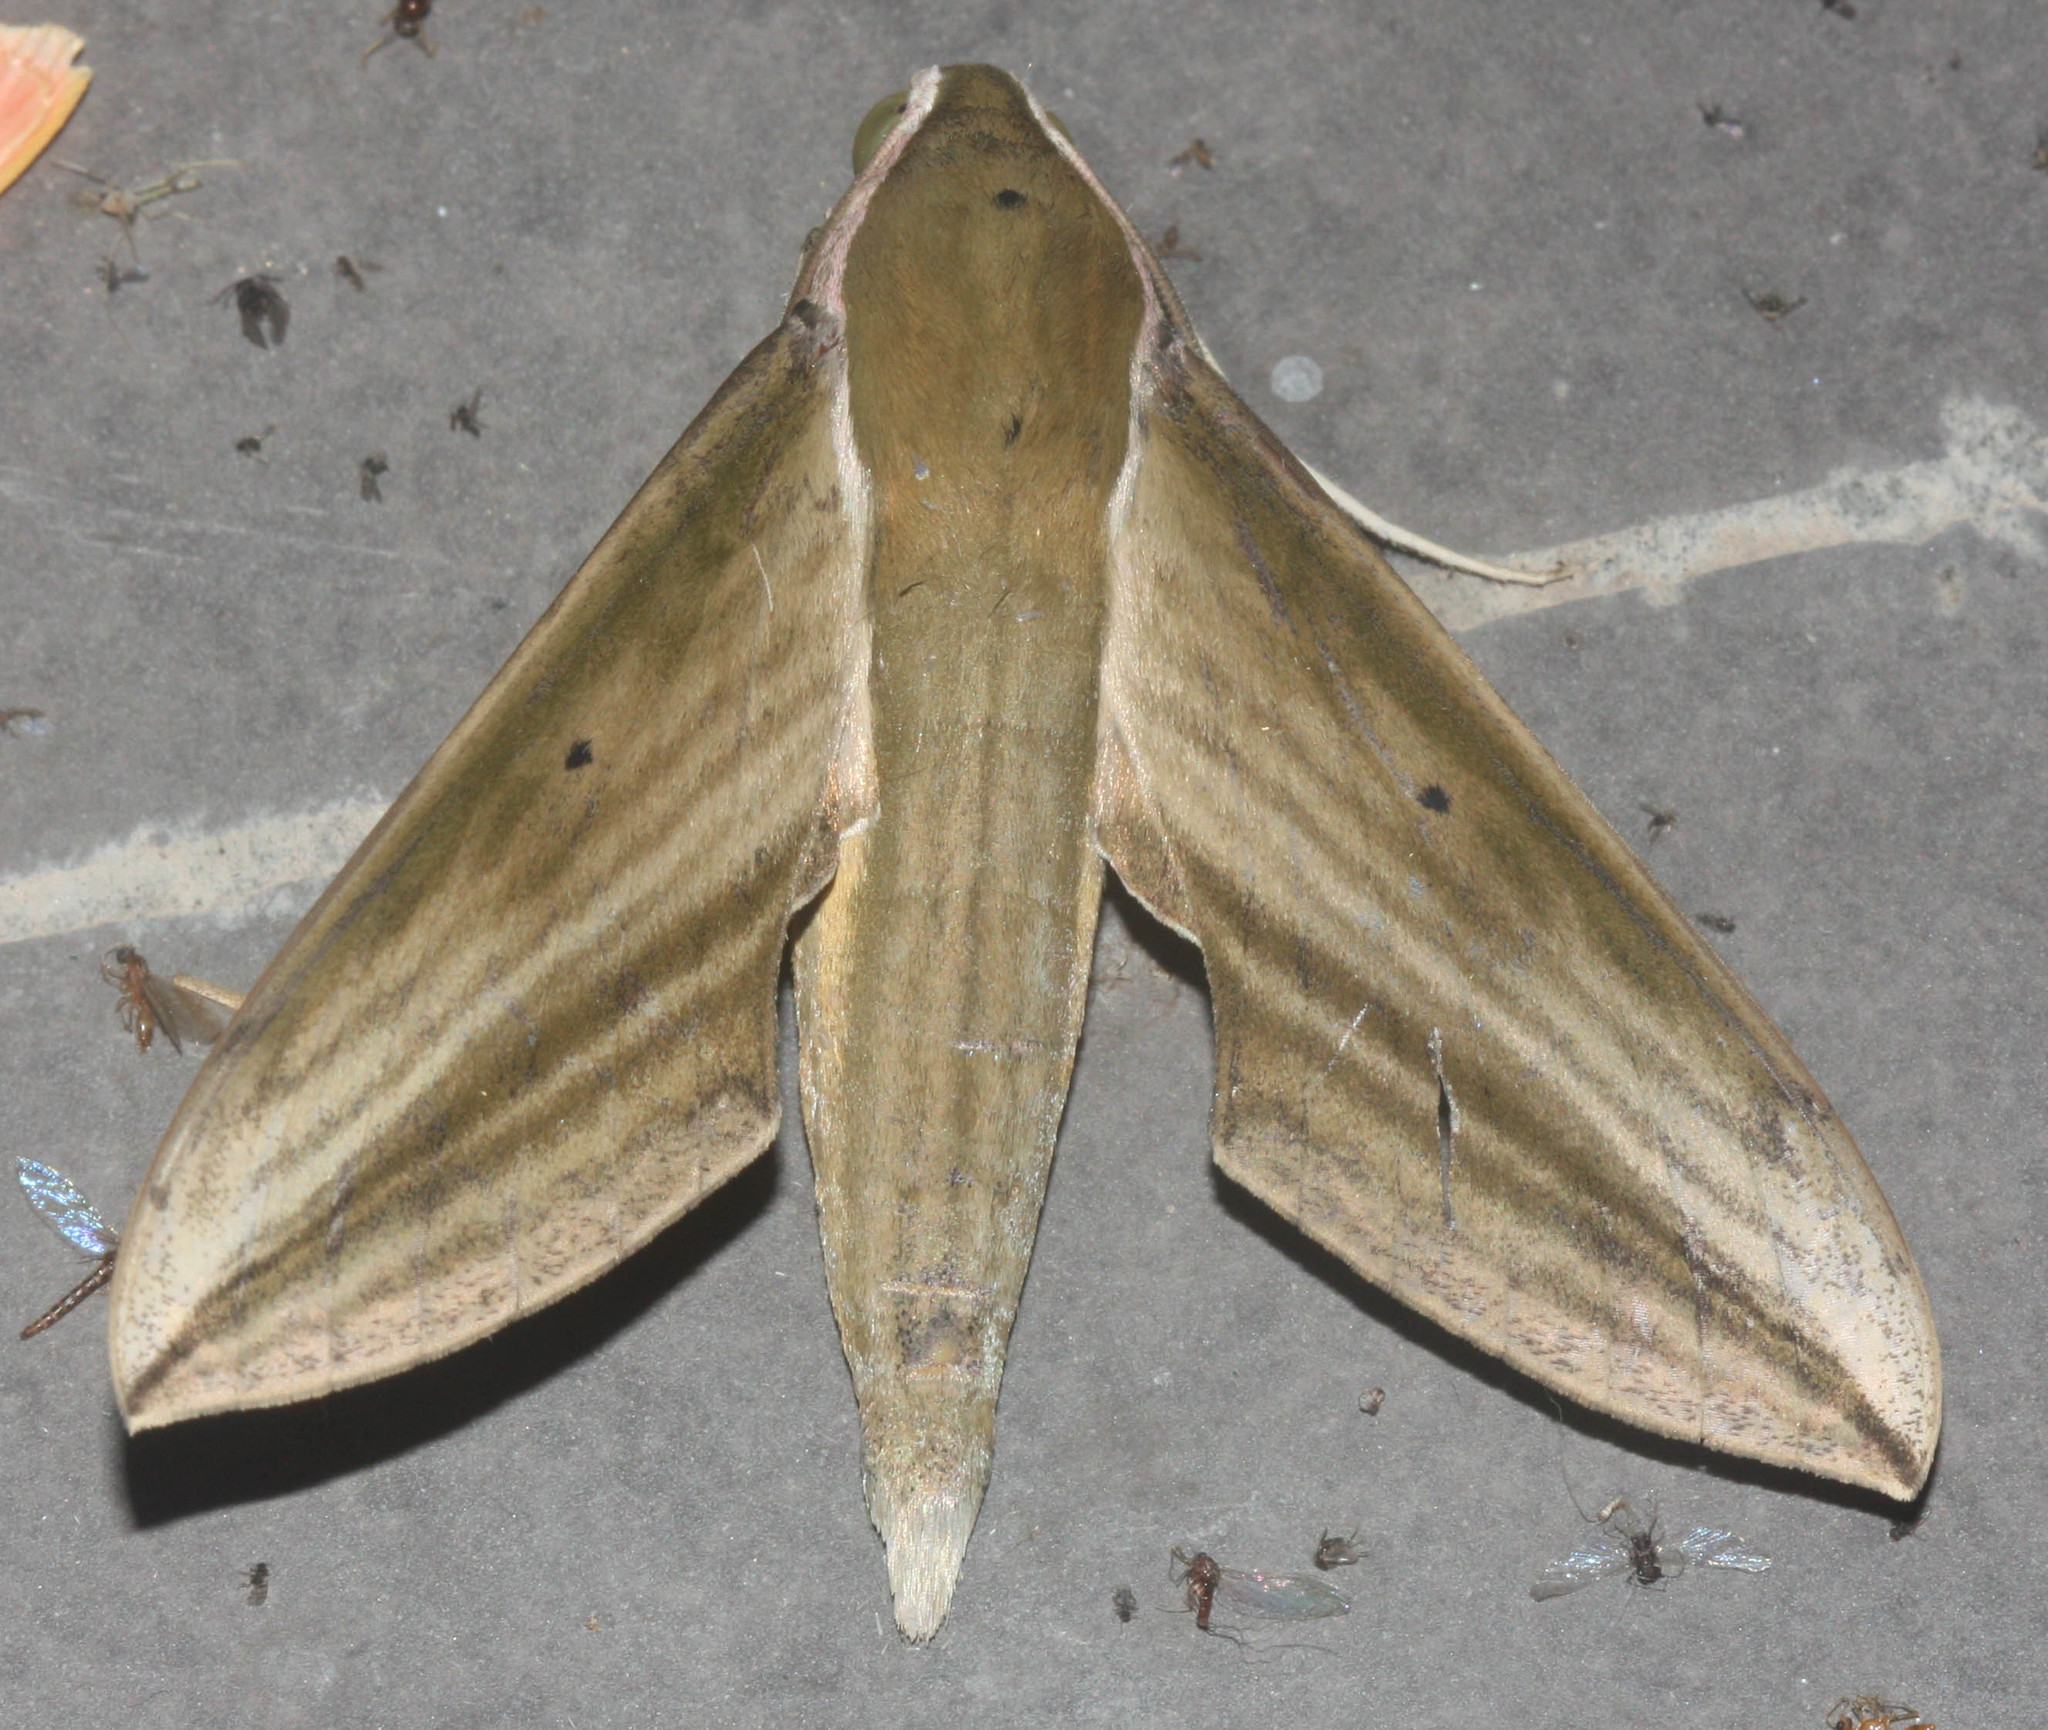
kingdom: Animalia
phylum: Arthropoda
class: Insecta
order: Lepidoptera
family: Sphingidae
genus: Cechetra
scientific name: Cechetra minor
